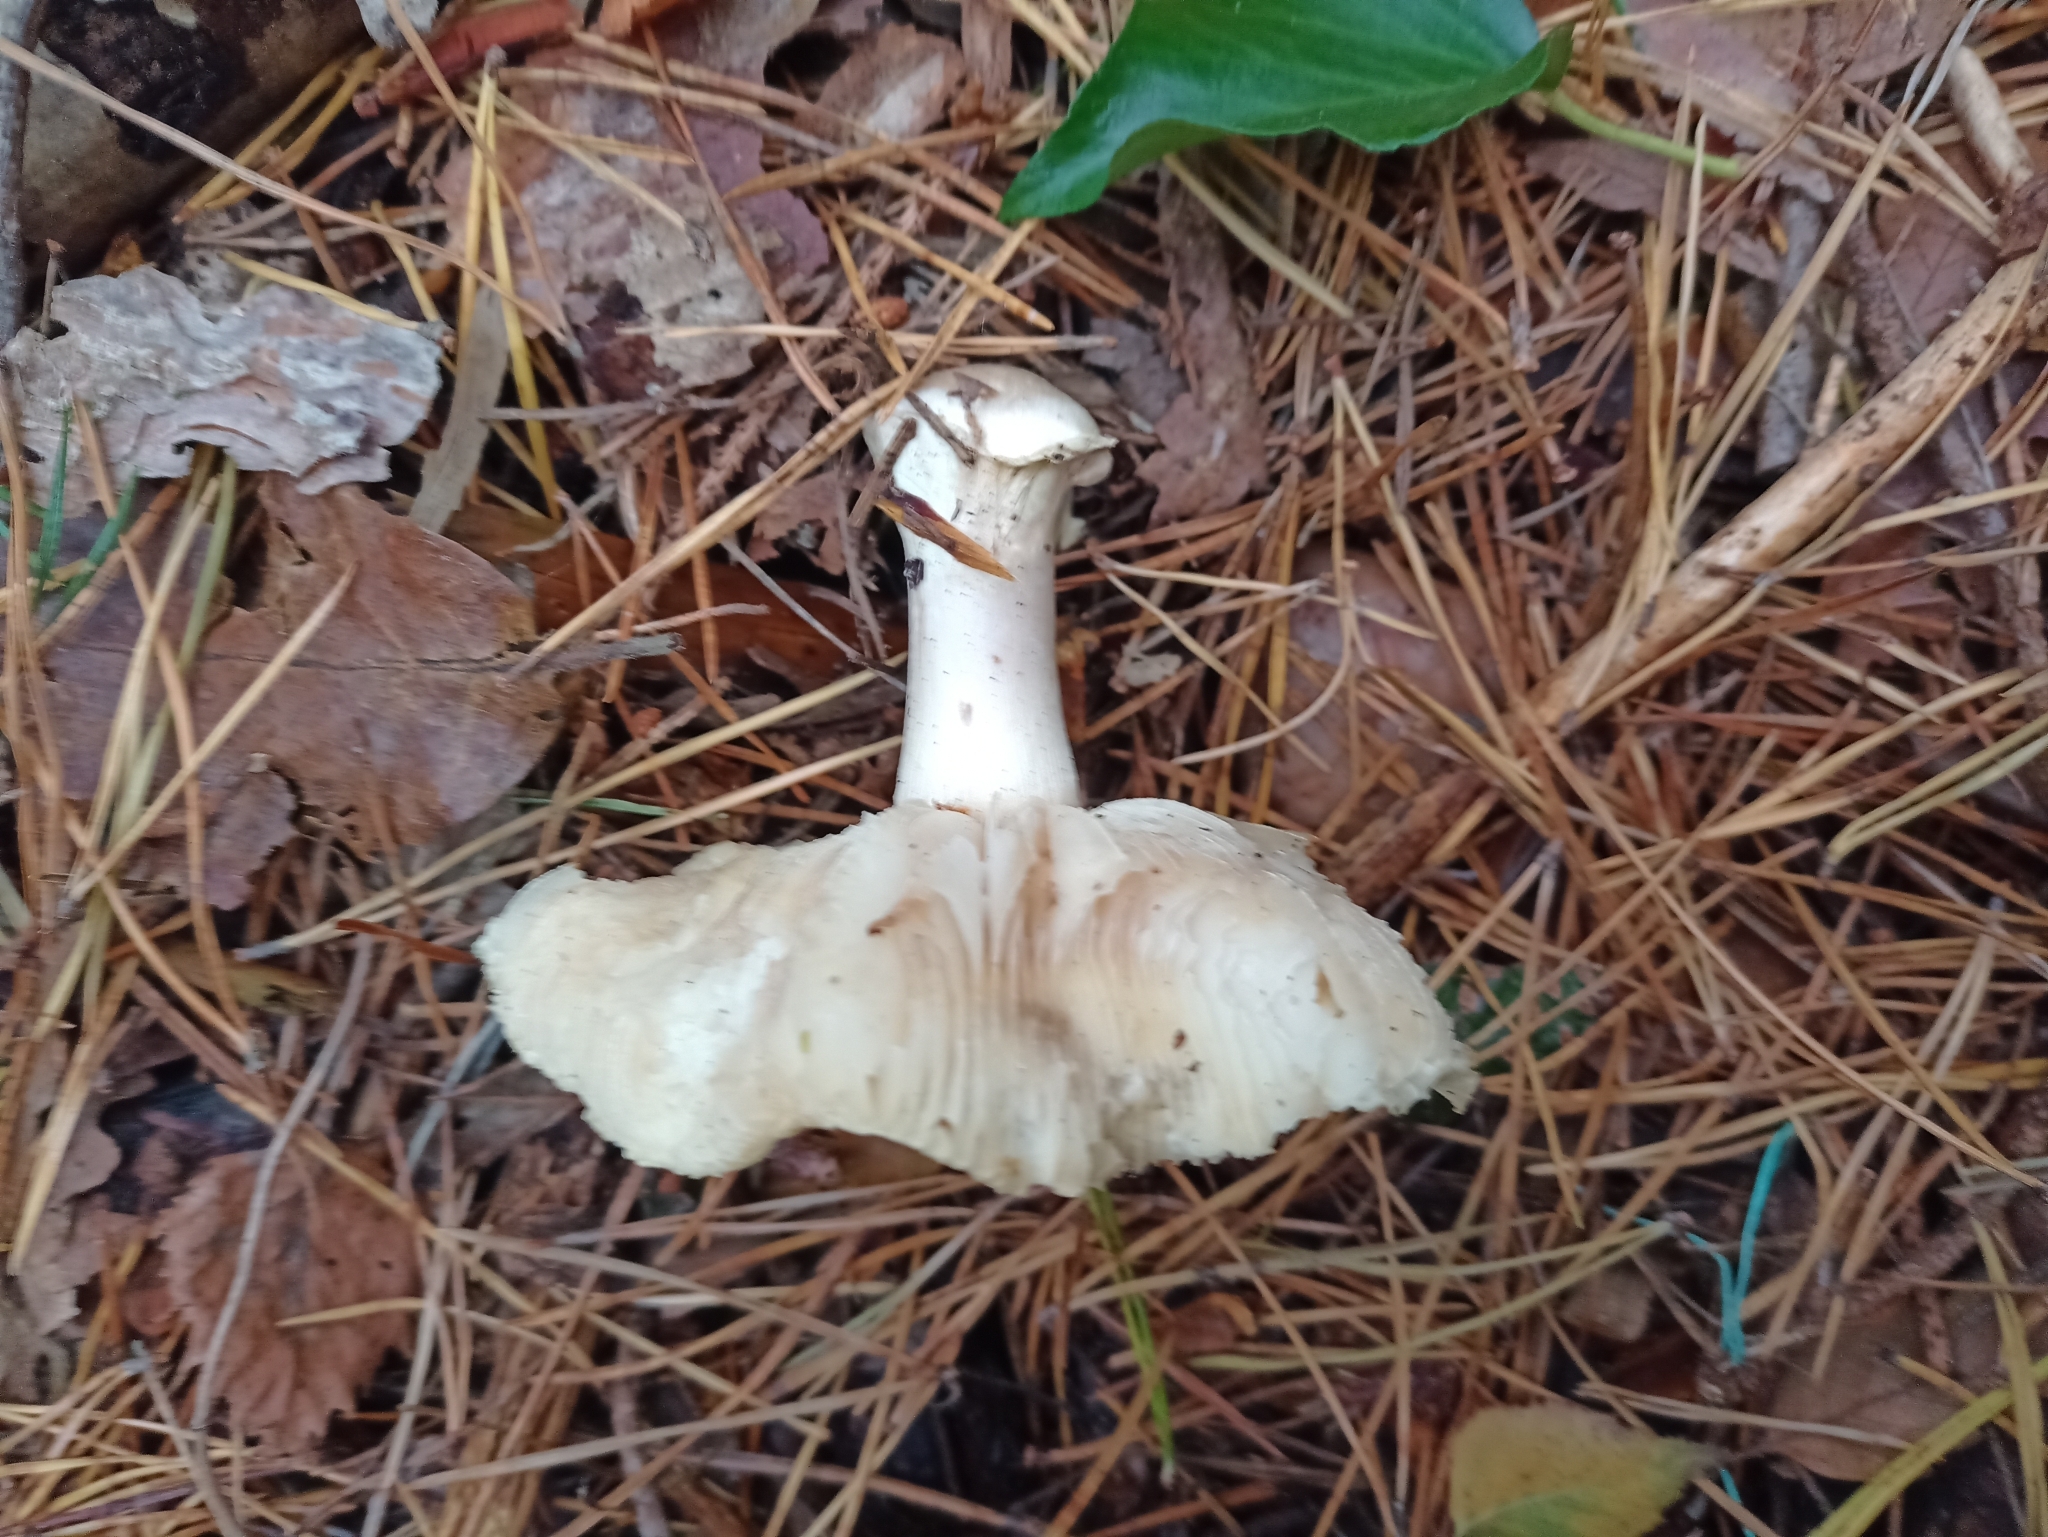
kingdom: Fungi
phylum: Basidiomycota
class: Agaricomycetes
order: Agaricales
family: Amanitaceae
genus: Amanita
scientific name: Amanita citrina
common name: False death-cap
